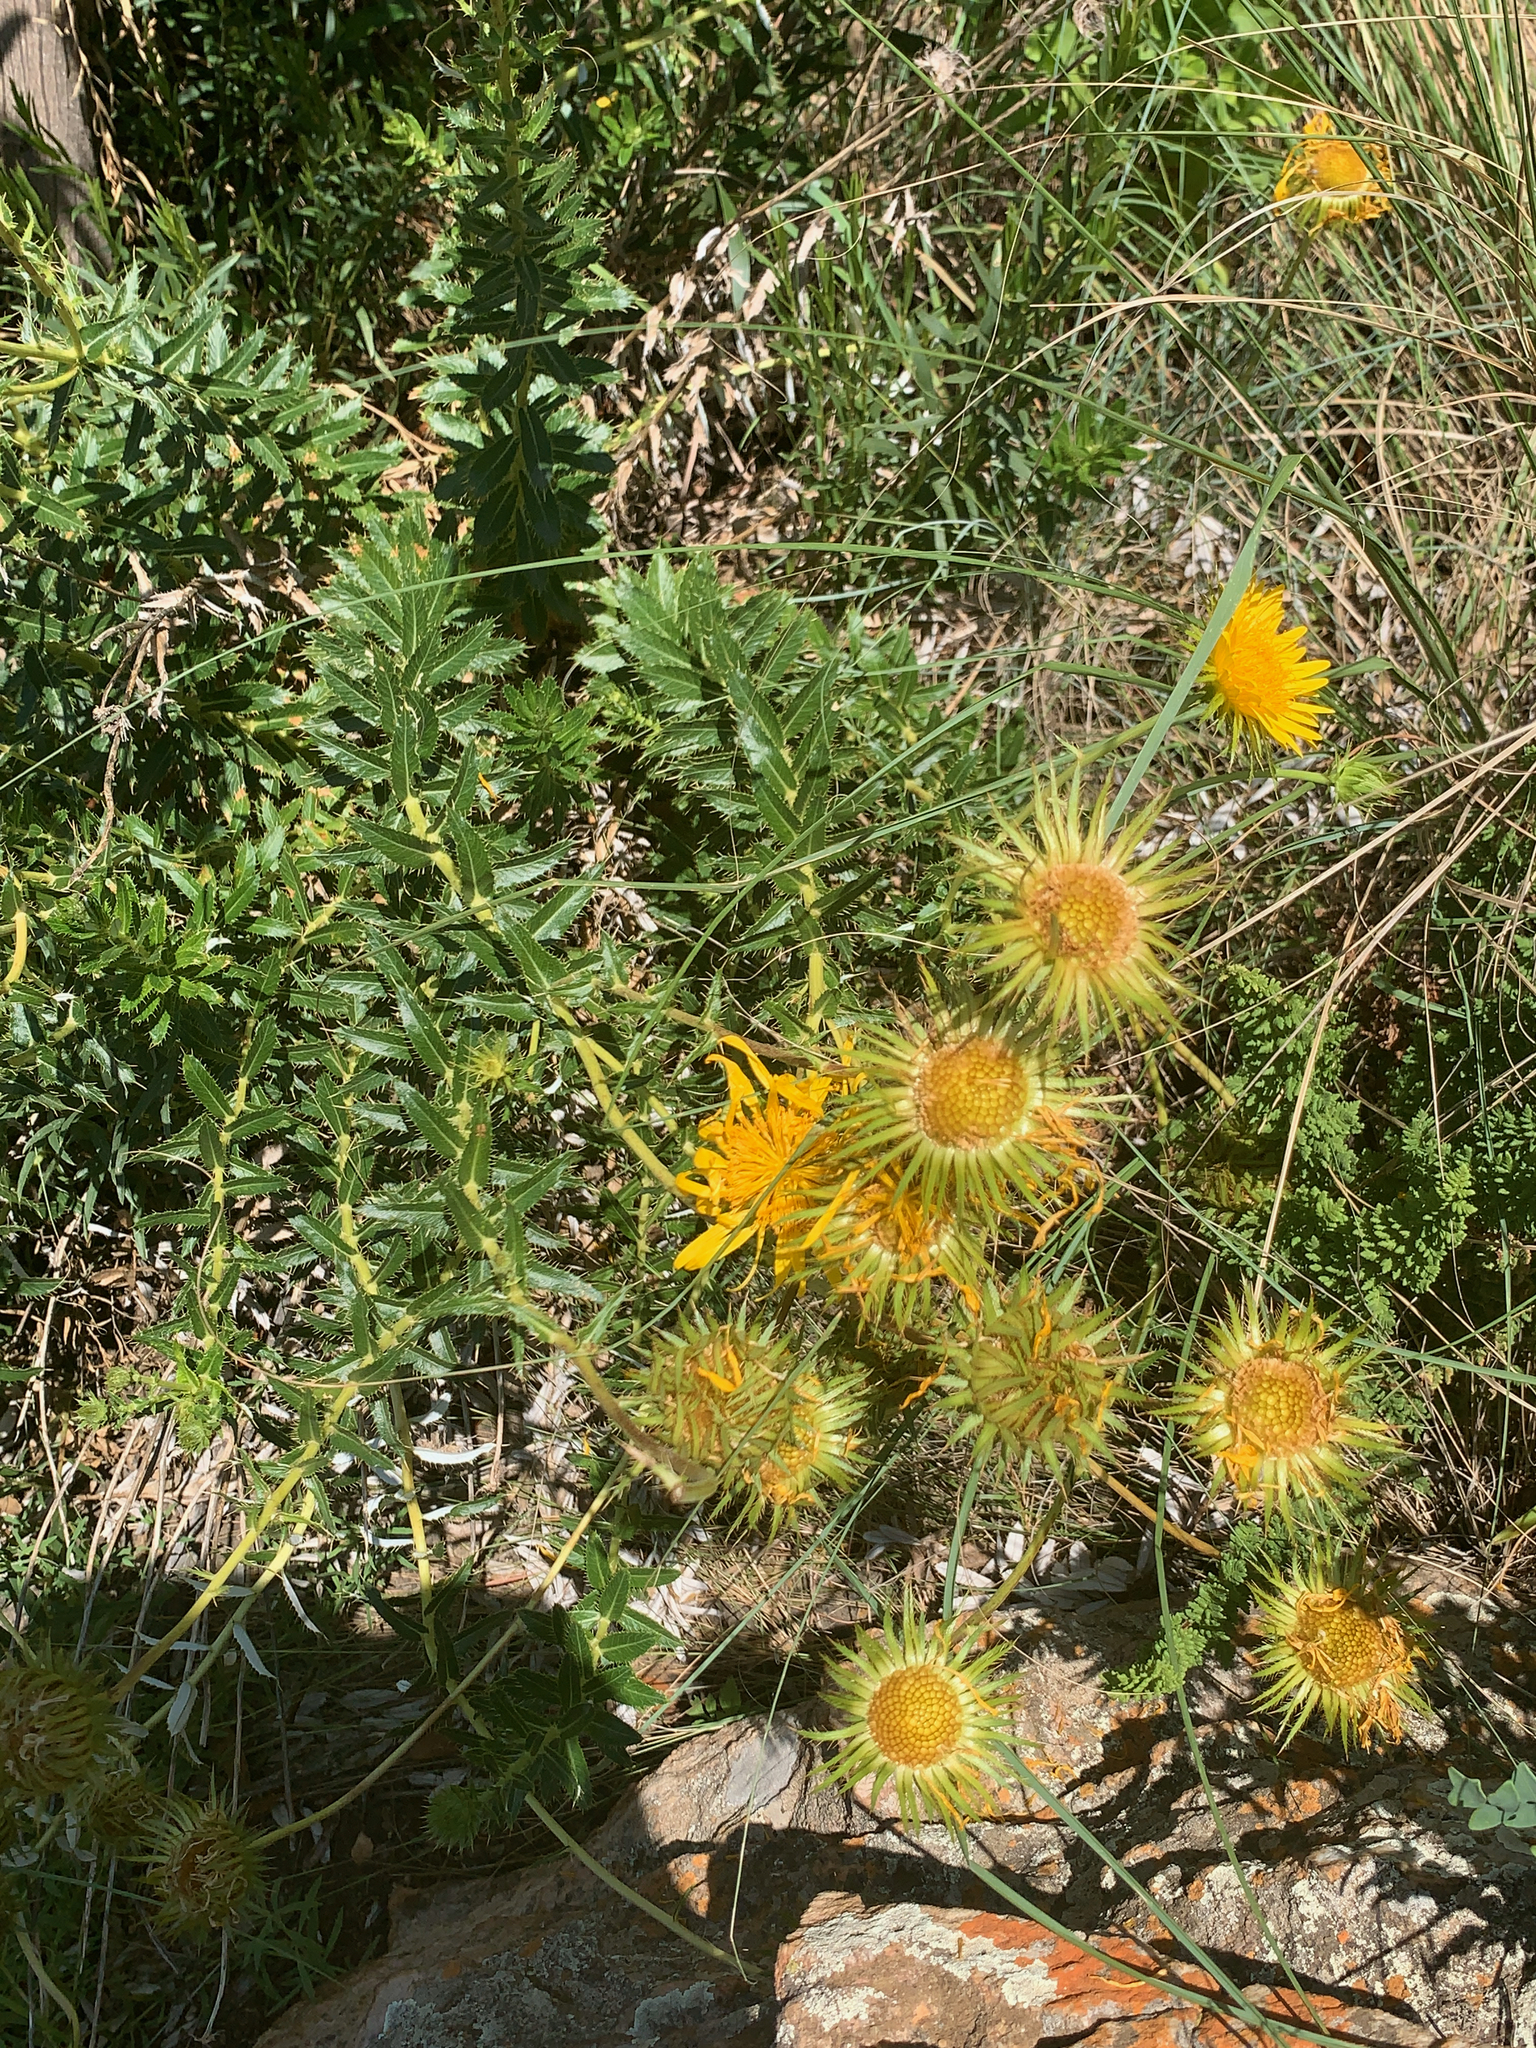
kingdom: Plantae
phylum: Tracheophyta
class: Magnoliopsida
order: Asterales
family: Asteraceae
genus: Berkheya
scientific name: Berkheya seminivea
